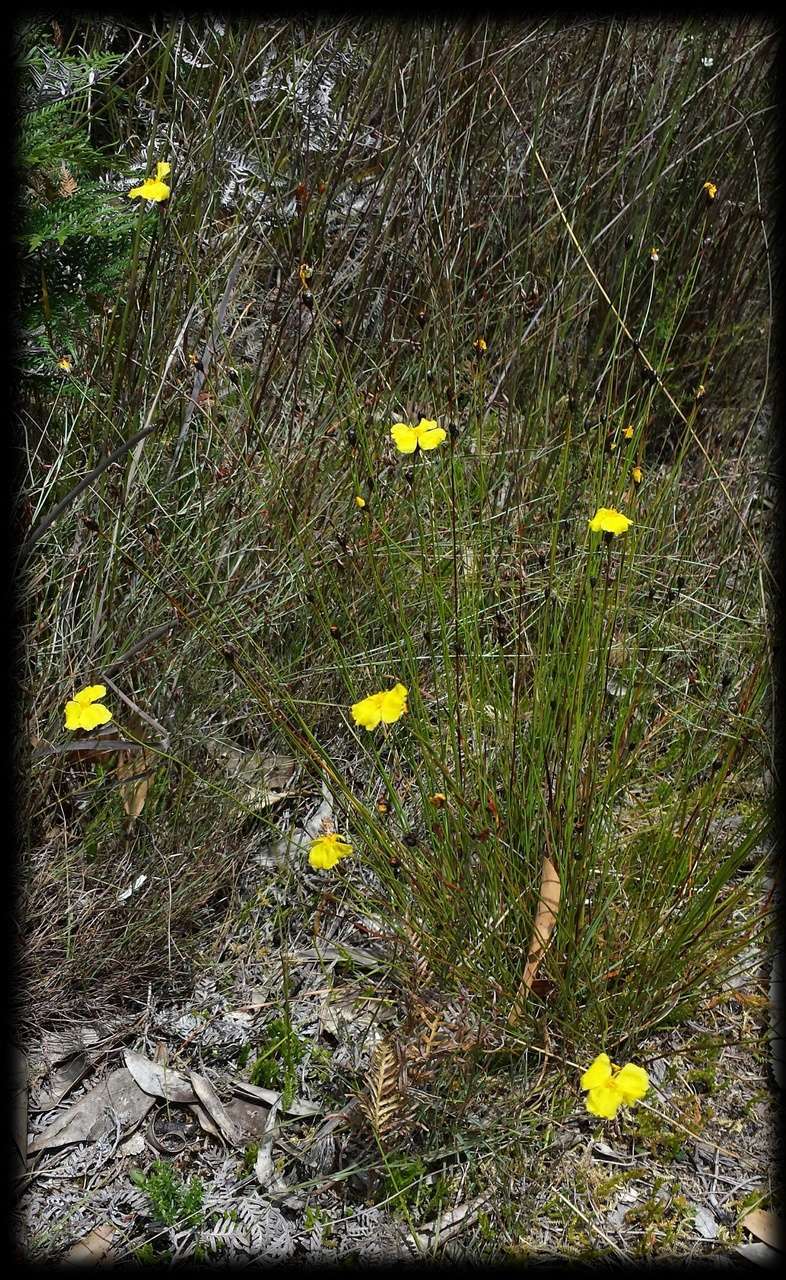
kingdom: Plantae
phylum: Tracheophyta
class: Liliopsida
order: Poales
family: Xyridaceae
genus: Xyris
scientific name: Xyris gracilis
